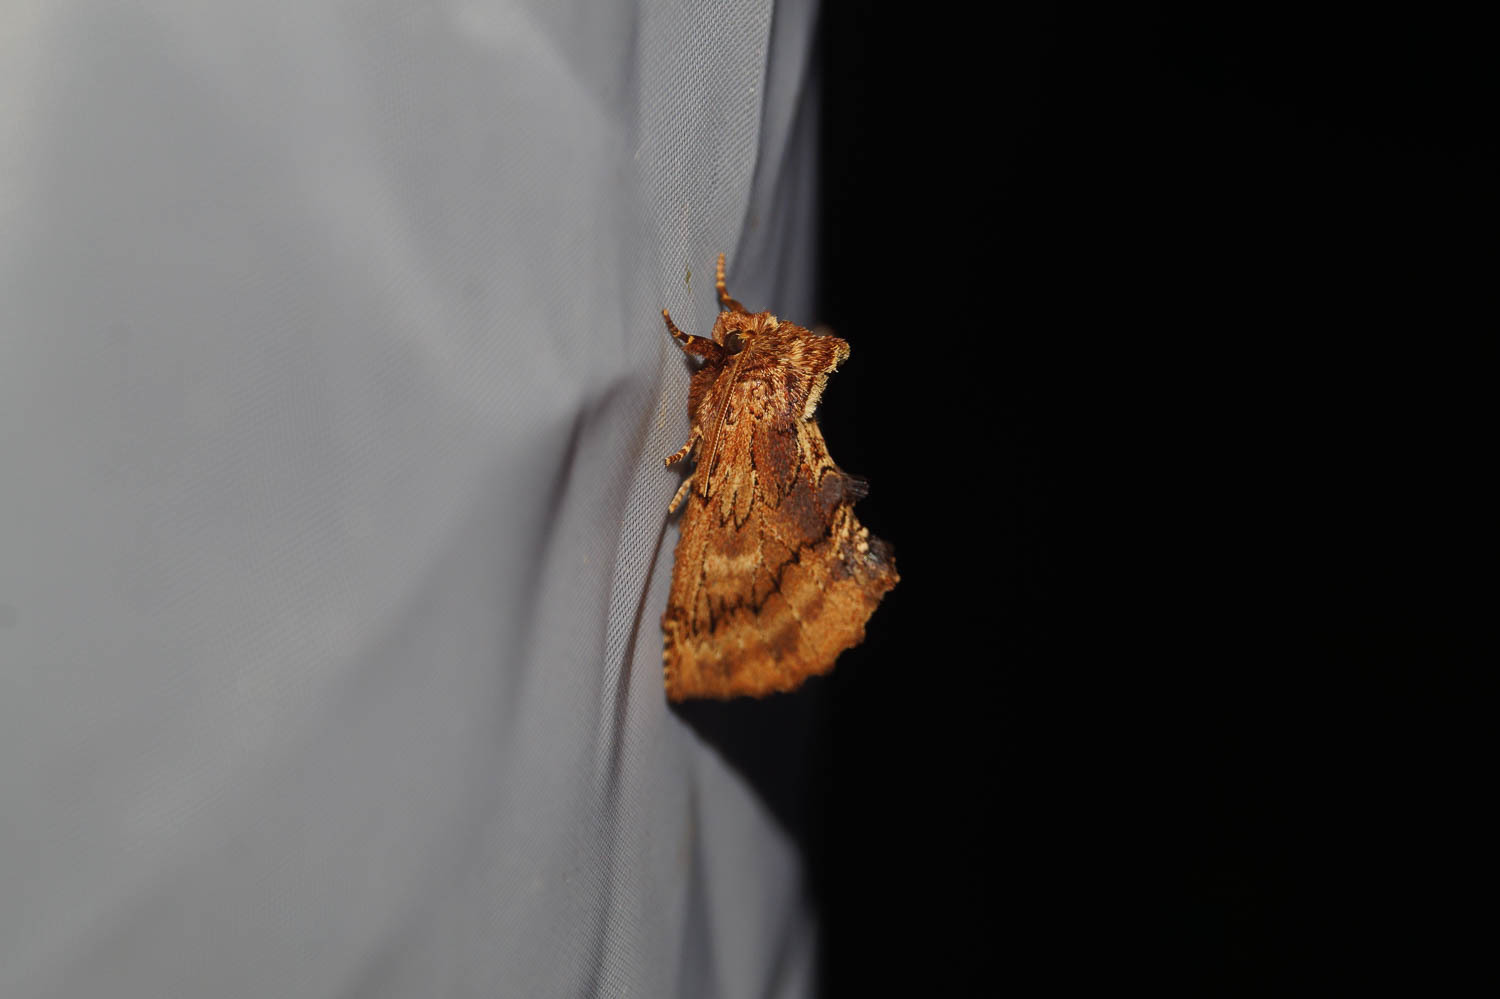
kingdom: Animalia
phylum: Arthropoda
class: Insecta
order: Lepidoptera
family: Notodontidae
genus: Ptilodon
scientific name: Ptilodon capucina
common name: Coxcomb prominent
